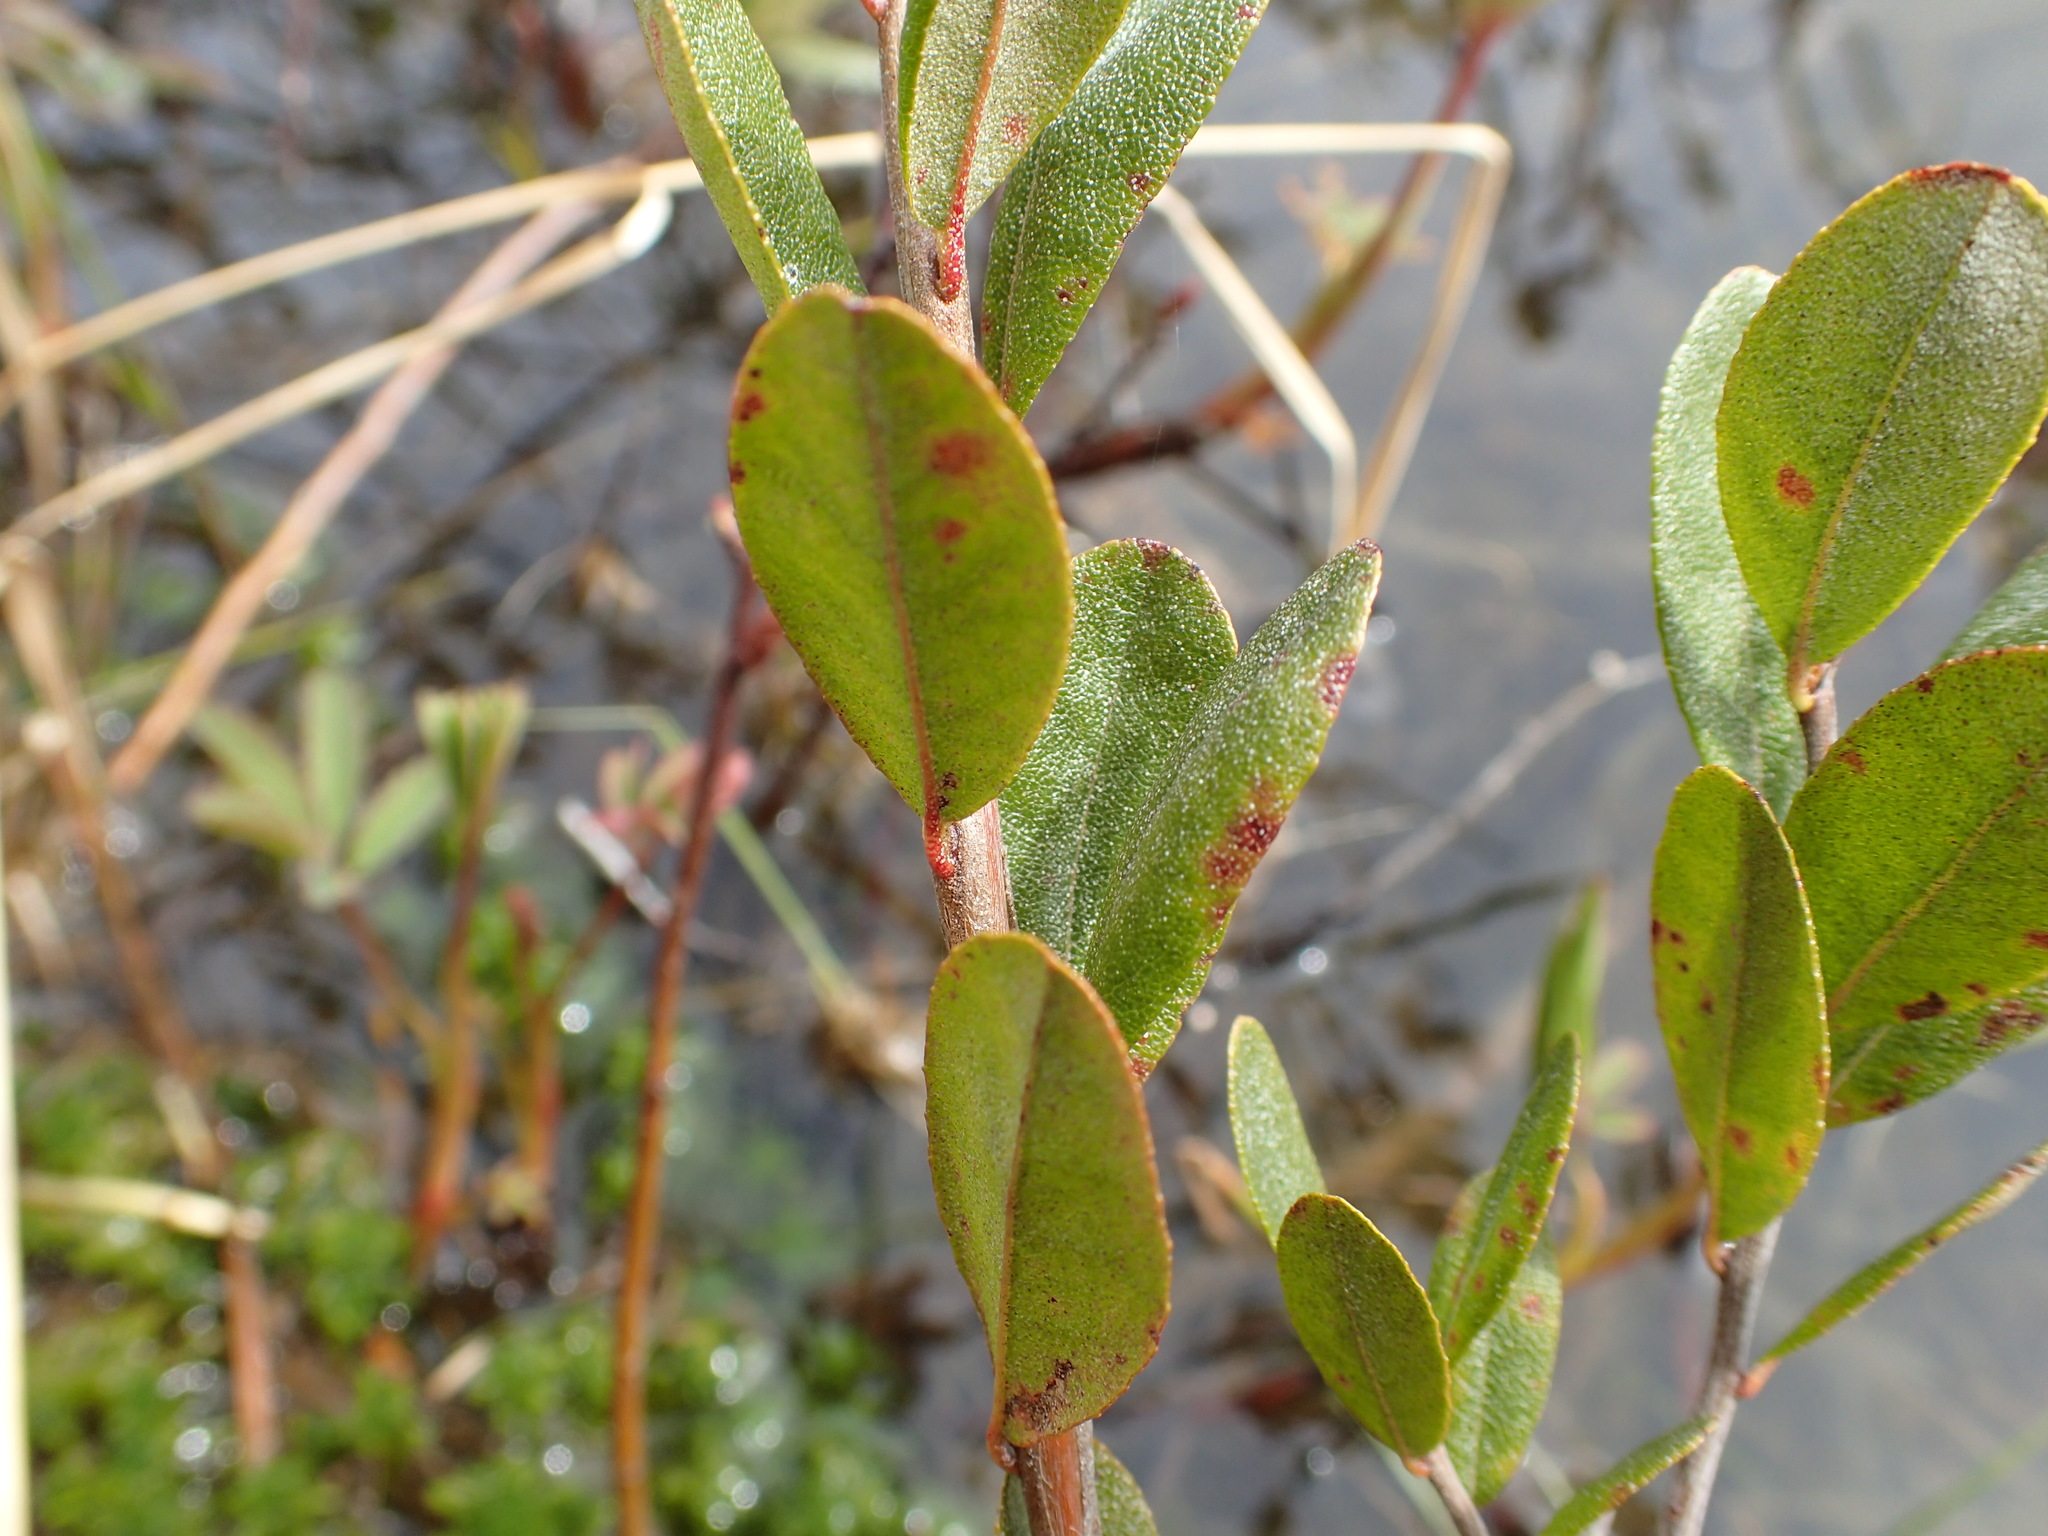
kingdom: Plantae
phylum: Tracheophyta
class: Magnoliopsida
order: Ericales
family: Ericaceae
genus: Chamaedaphne
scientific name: Chamaedaphne calyculata
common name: Leatherleaf
